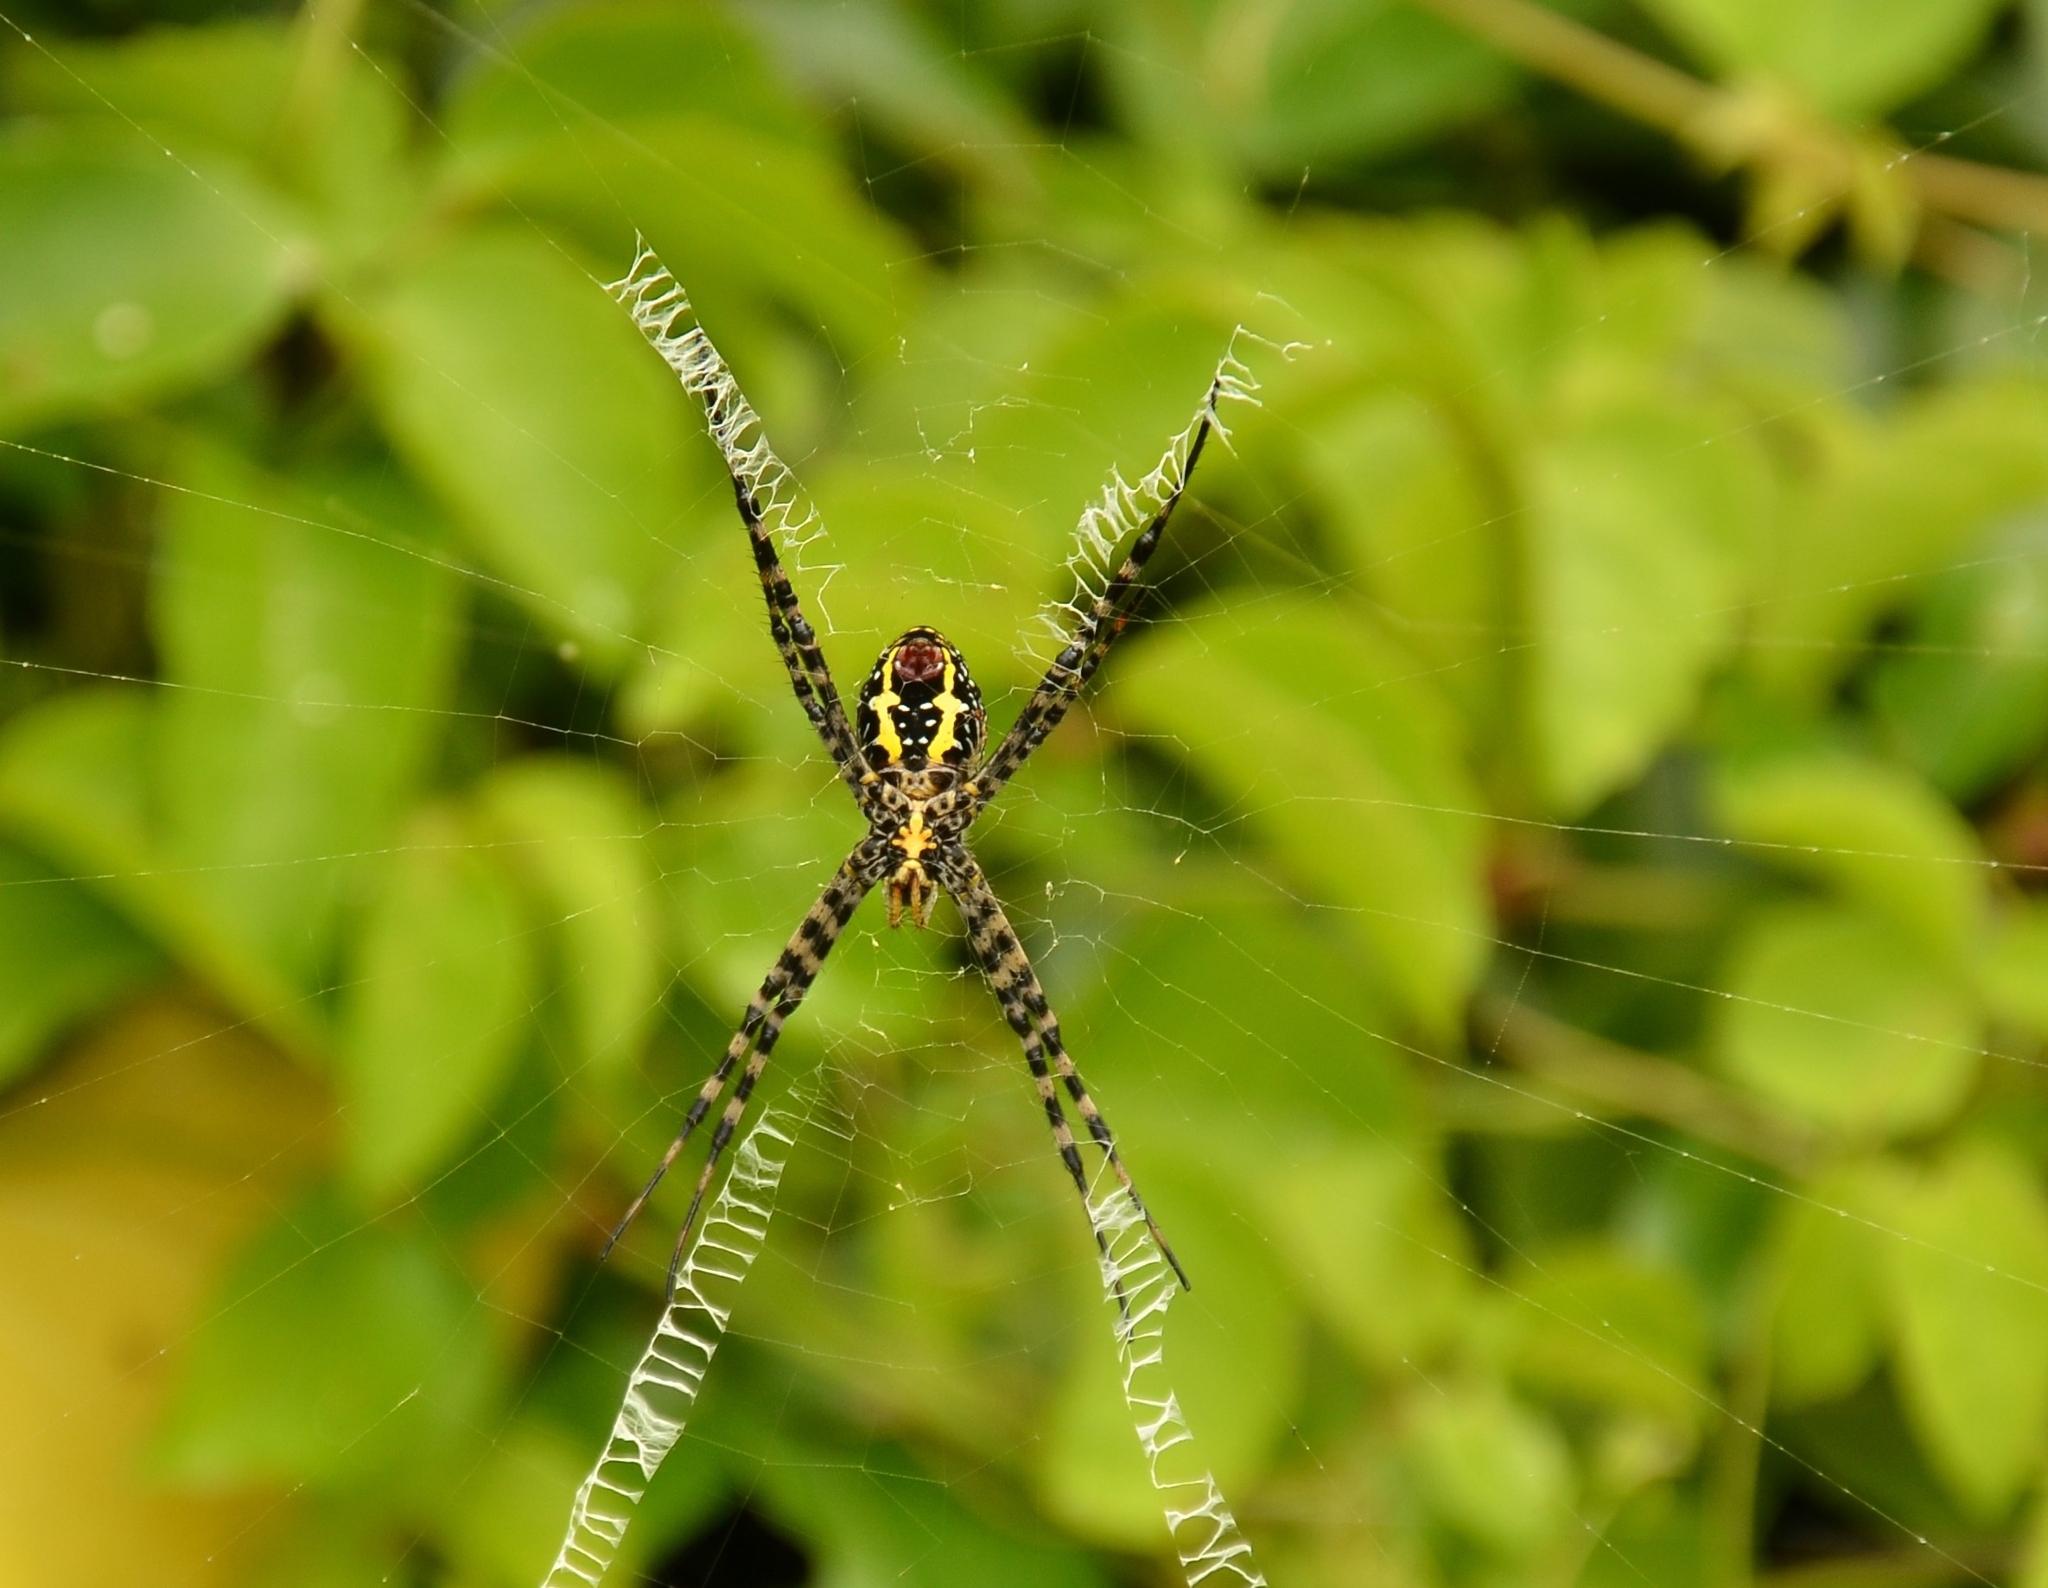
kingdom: Animalia
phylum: Arthropoda
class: Arachnida
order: Araneae
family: Araneidae
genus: Argiope
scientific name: Argiope aemula
